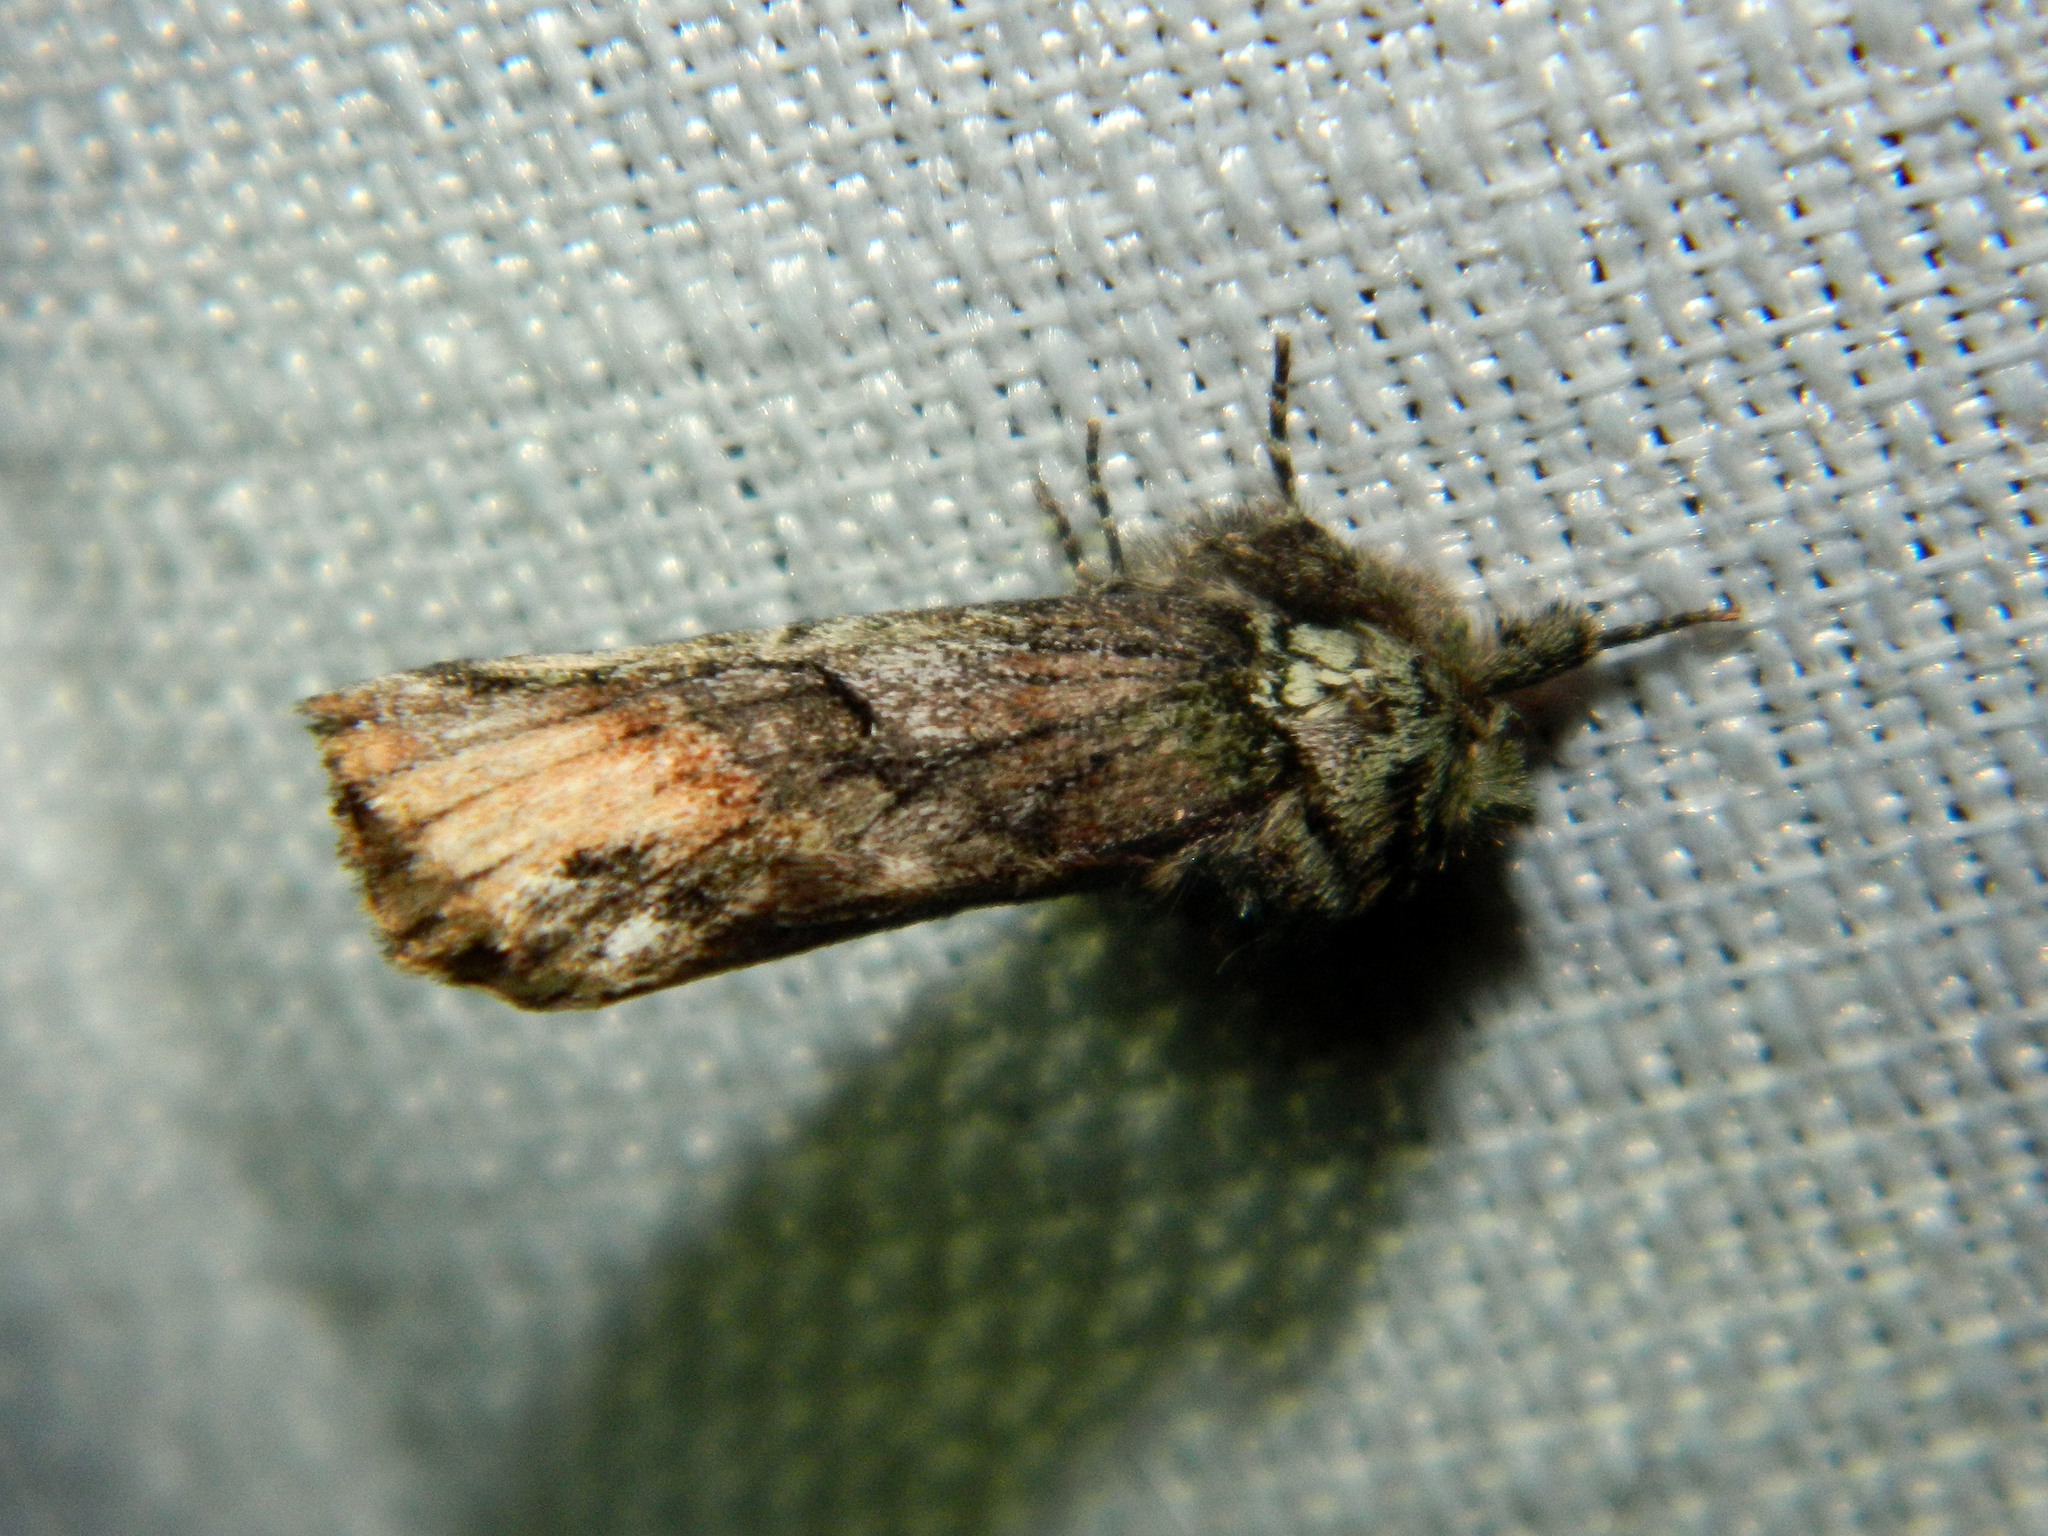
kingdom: Animalia
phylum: Arthropoda
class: Insecta
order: Lepidoptera
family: Notodontidae
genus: Schizura
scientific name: Schizura
